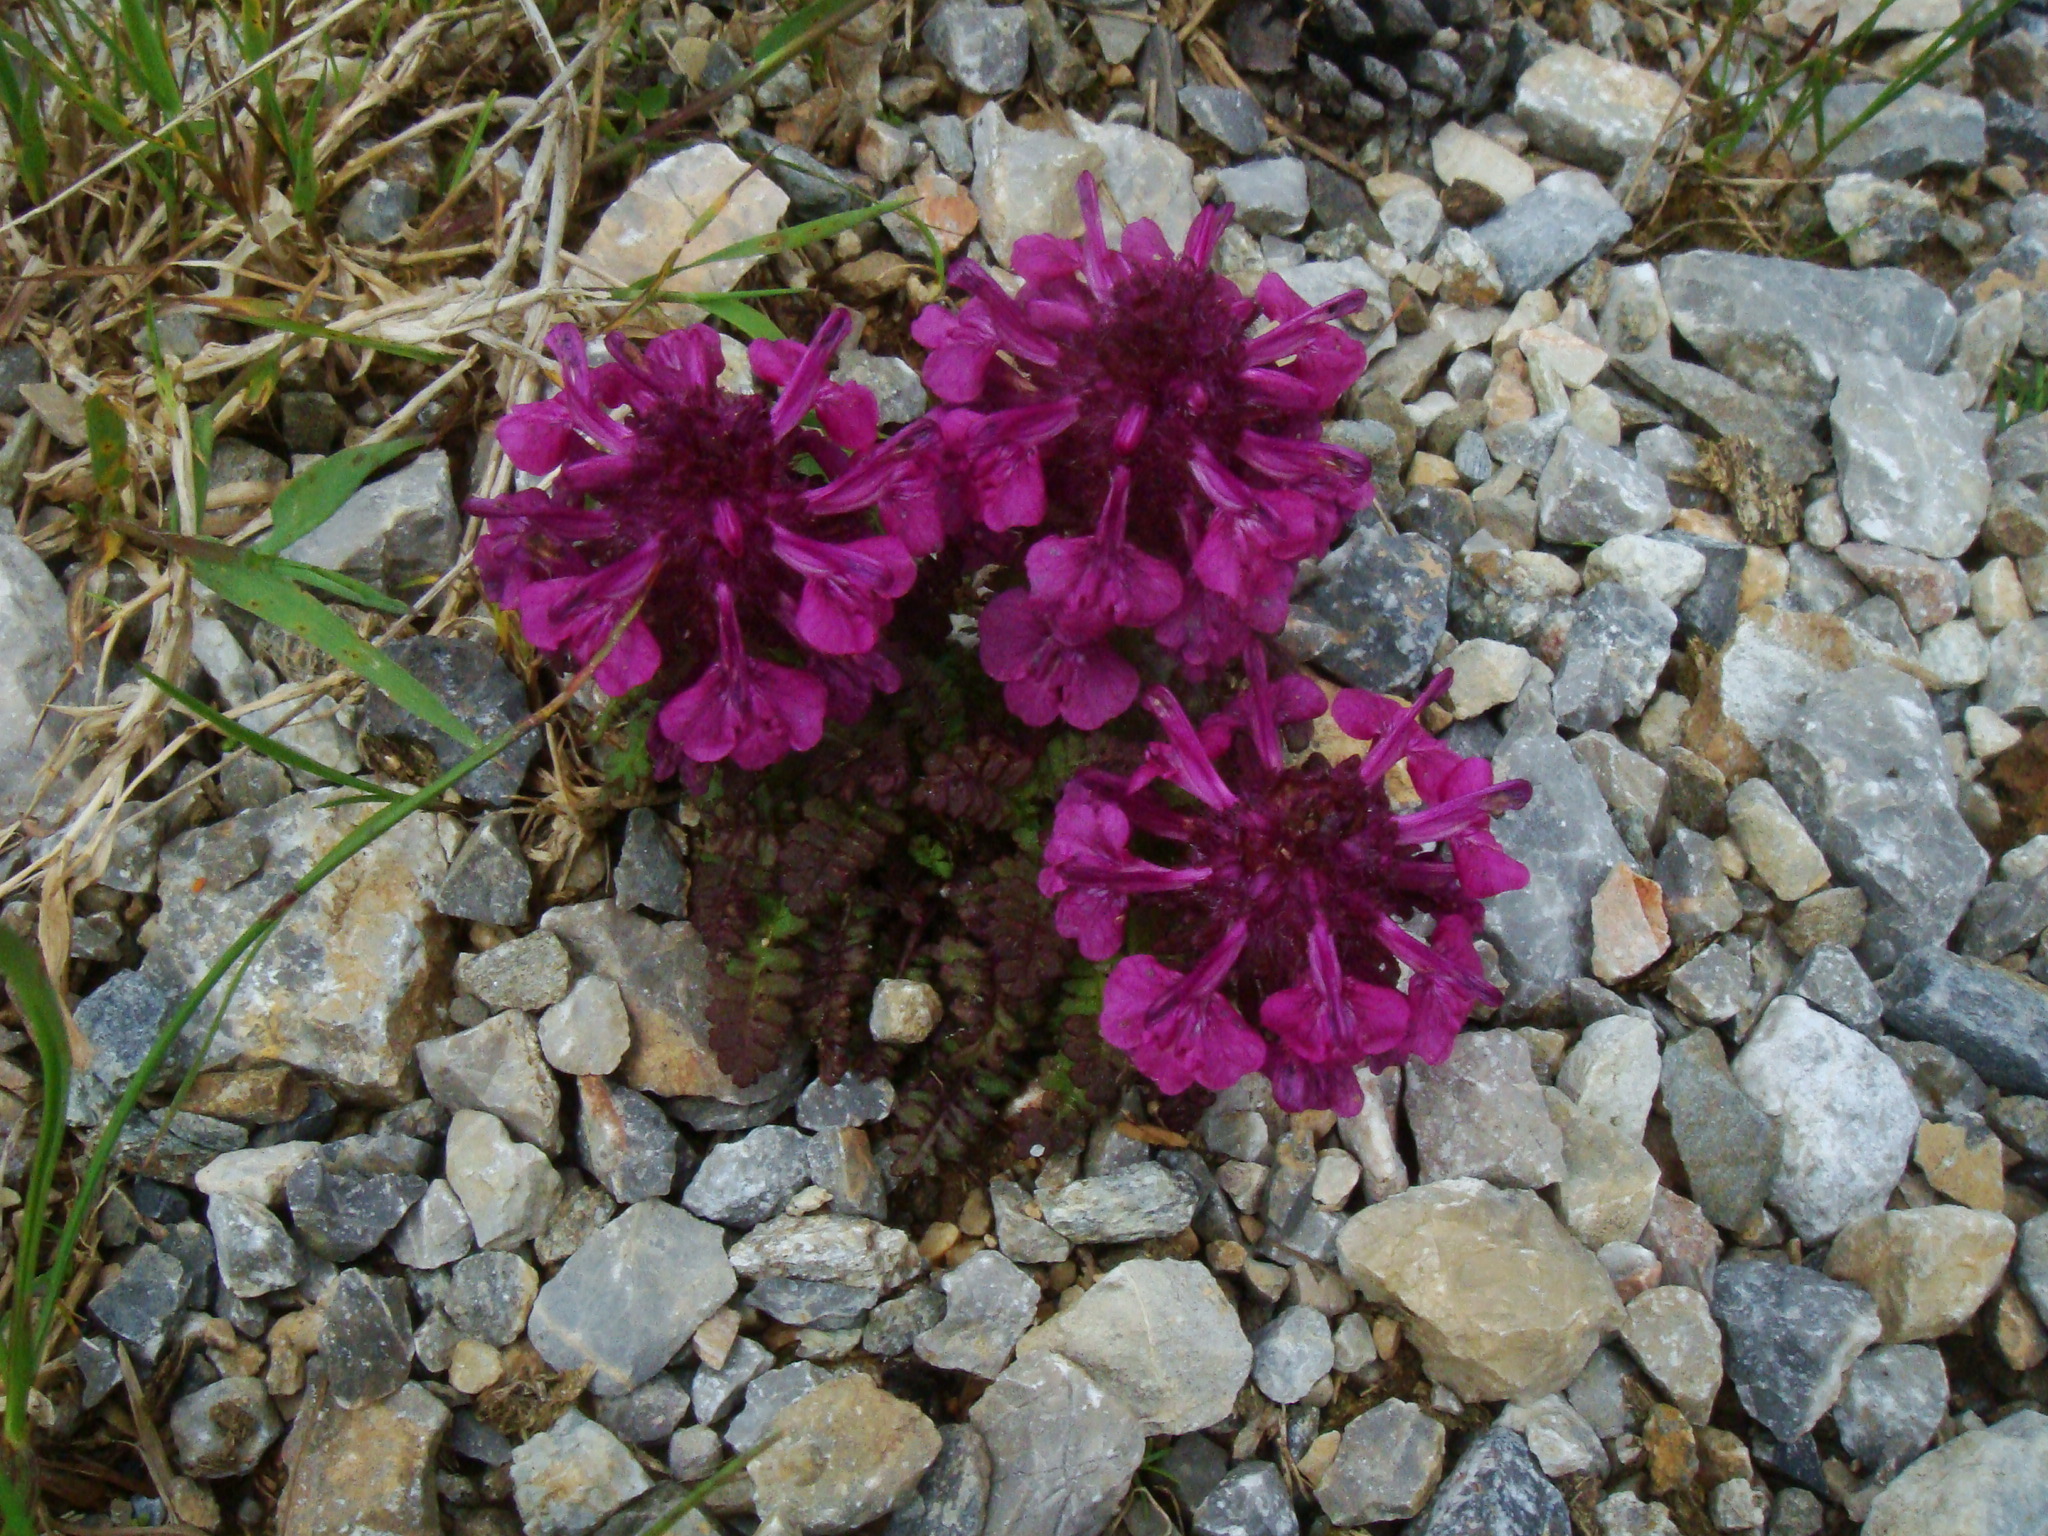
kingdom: Plantae
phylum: Tracheophyta
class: Magnoliopsida
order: Lamiales
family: Orobanchaceae
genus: Pedicularis
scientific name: Pedicularis verticillata
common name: Whorled lousewort
